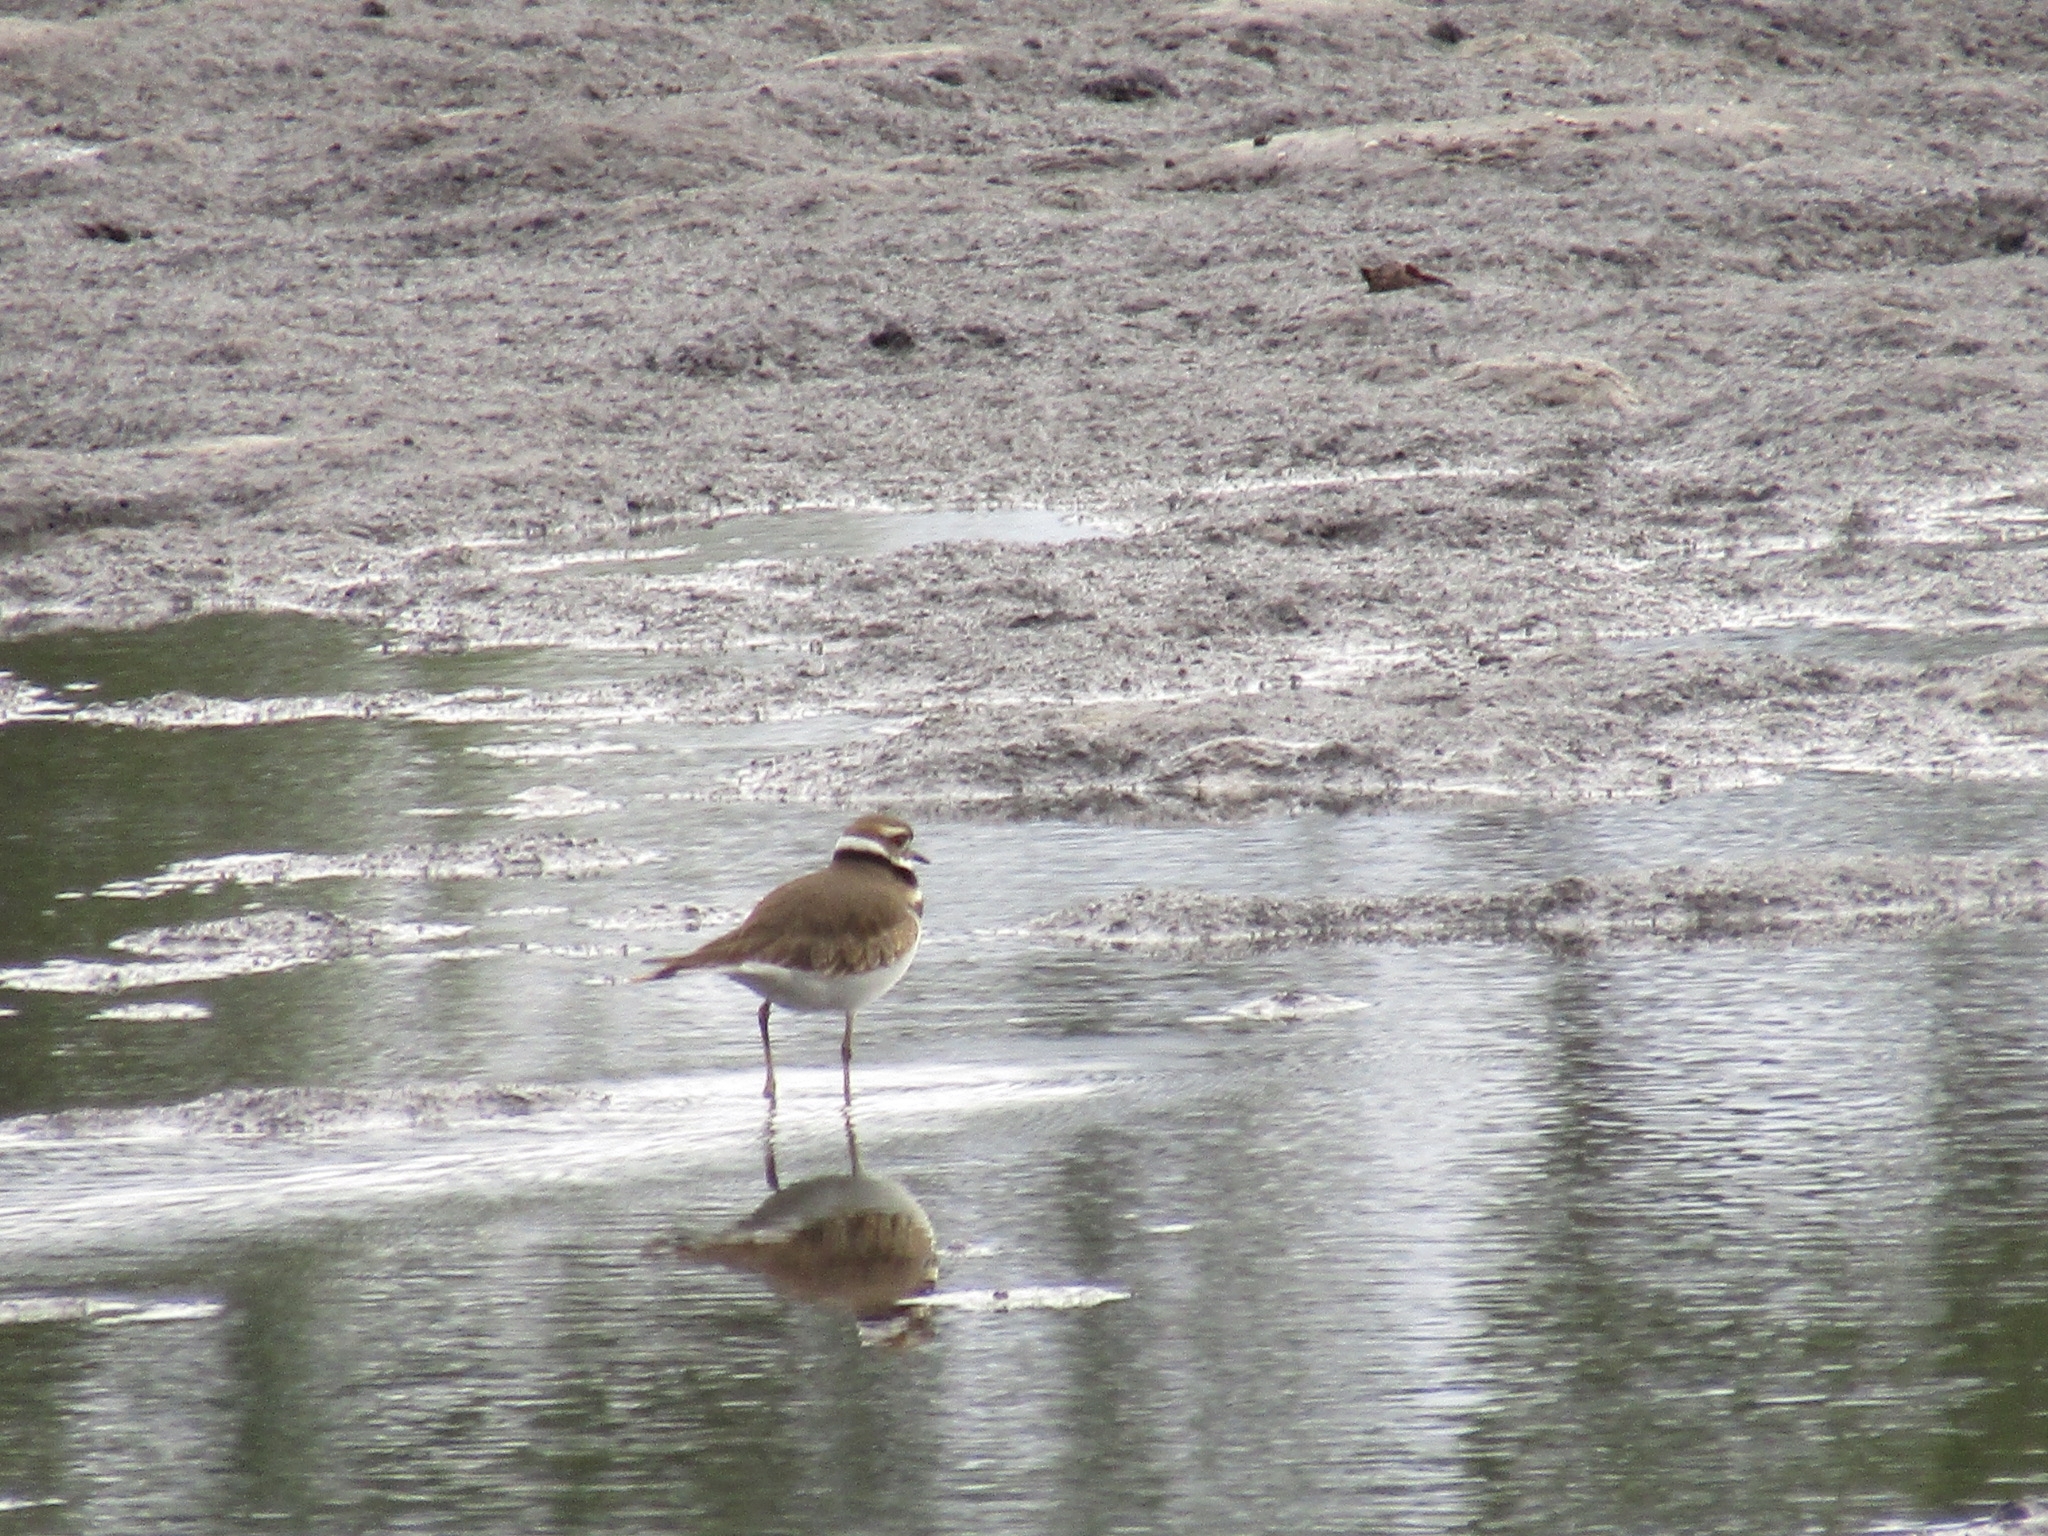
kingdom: Animalia
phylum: Chordata
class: Aves
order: Charadriiformes
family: Charadriidae
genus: Charadrius
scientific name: Charadrius vociferus
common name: Killdeer
